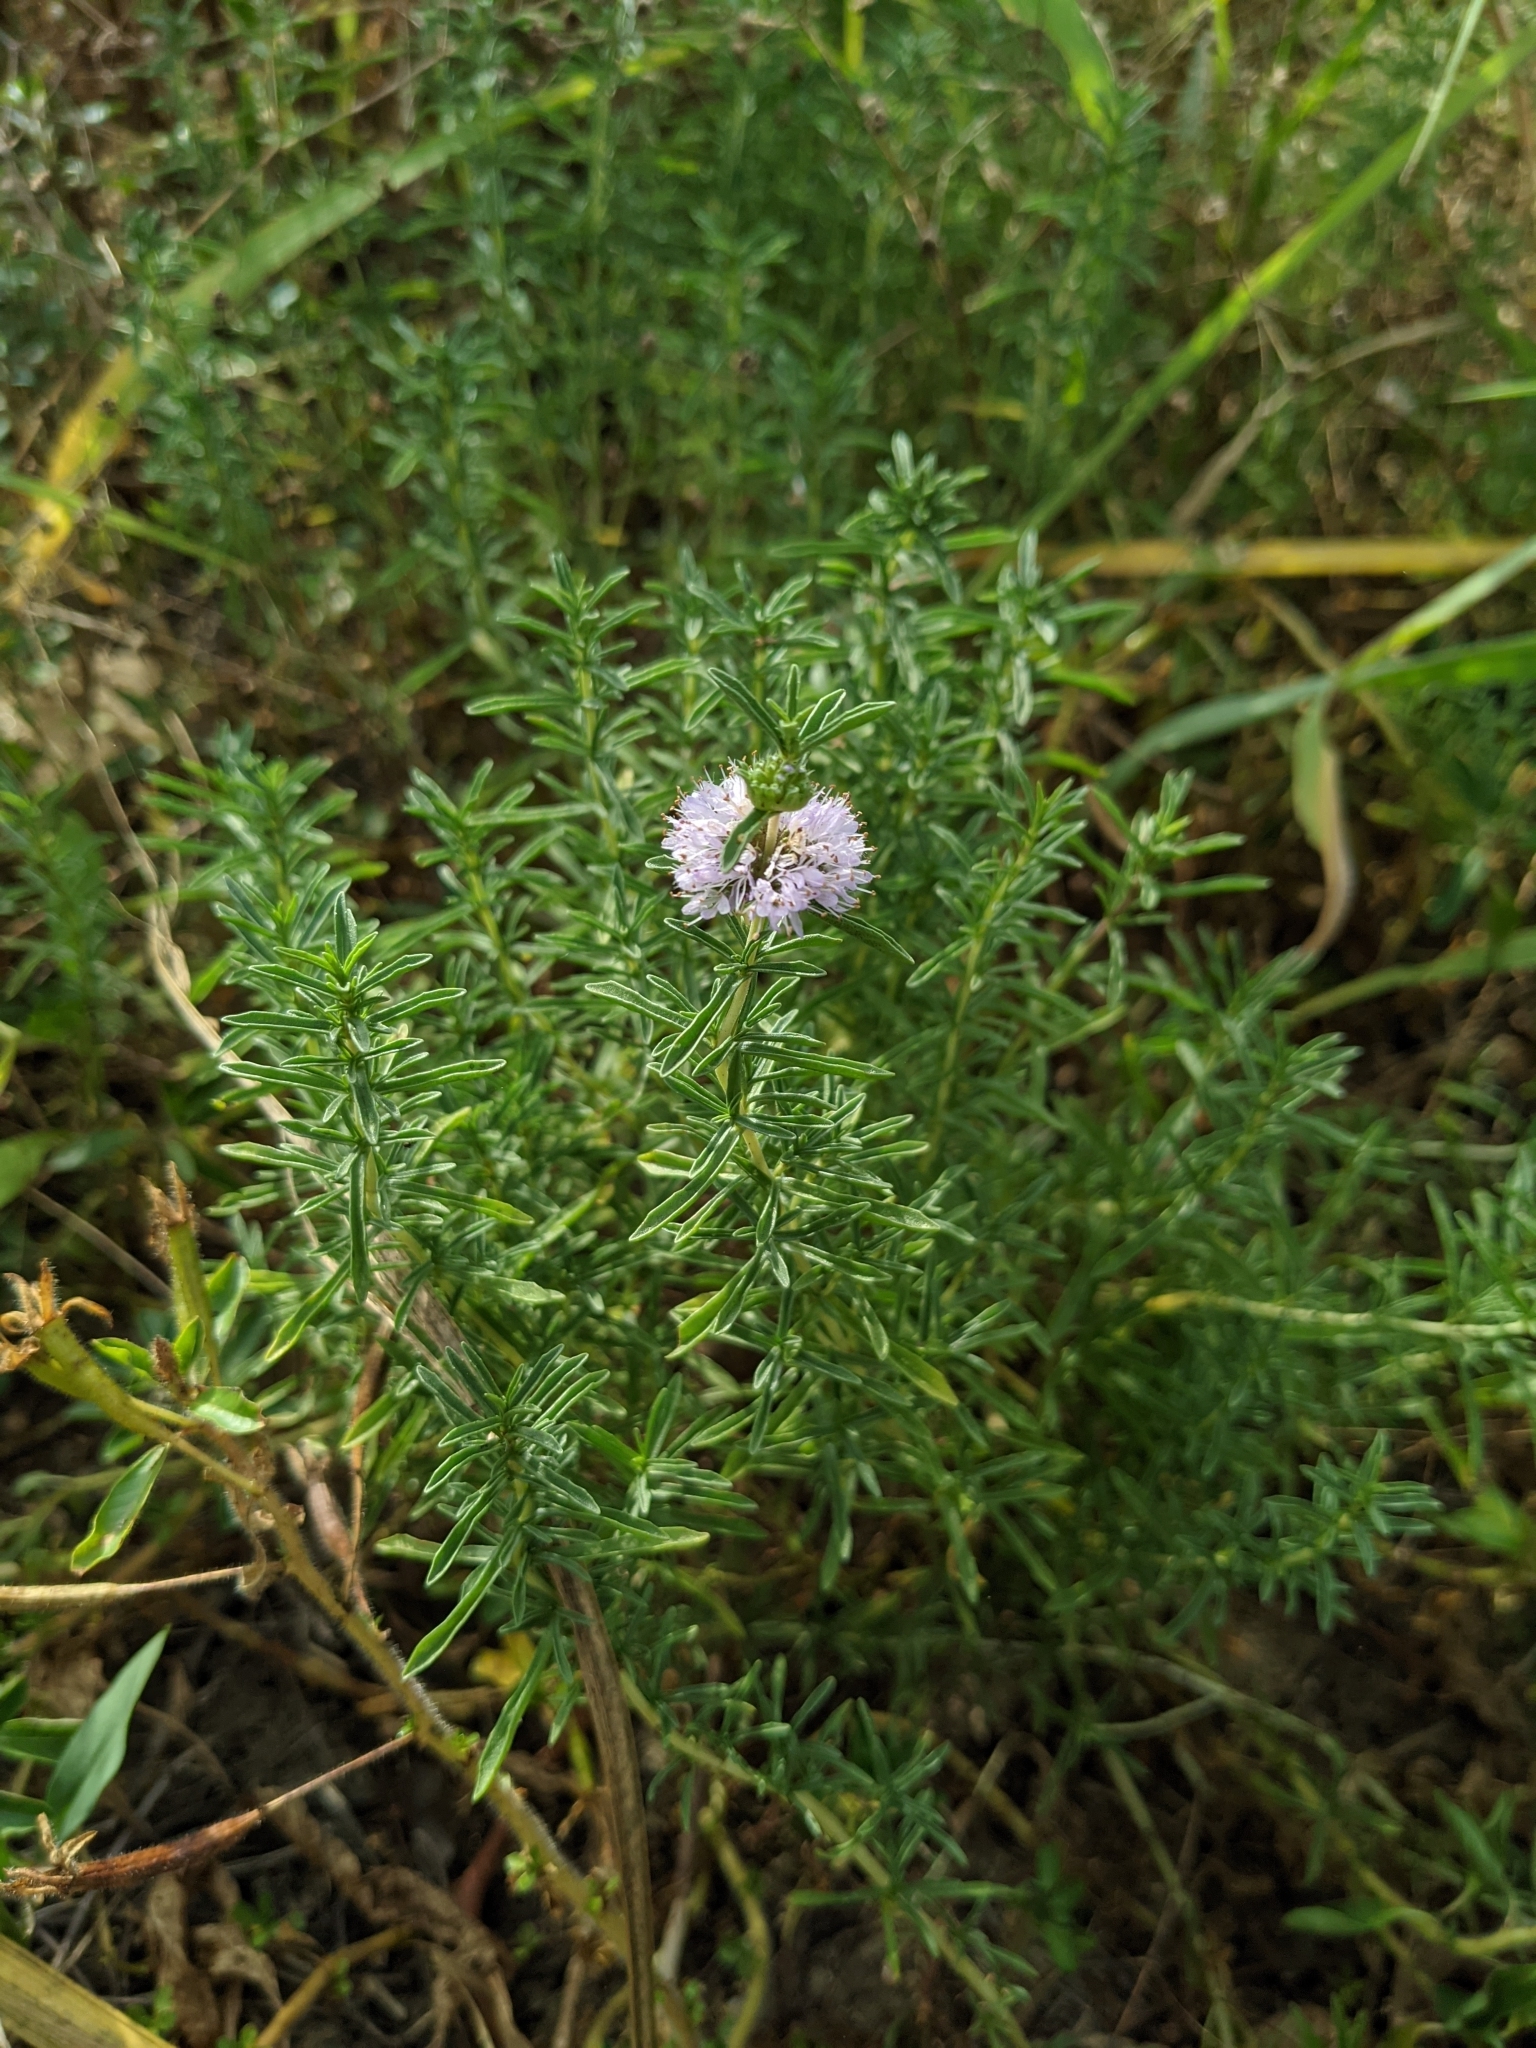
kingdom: Plantae
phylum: Tracheophyta
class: Magnoliopsida
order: Lamiales
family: Lamiaceae
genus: Mentha
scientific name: Mentha cervina
